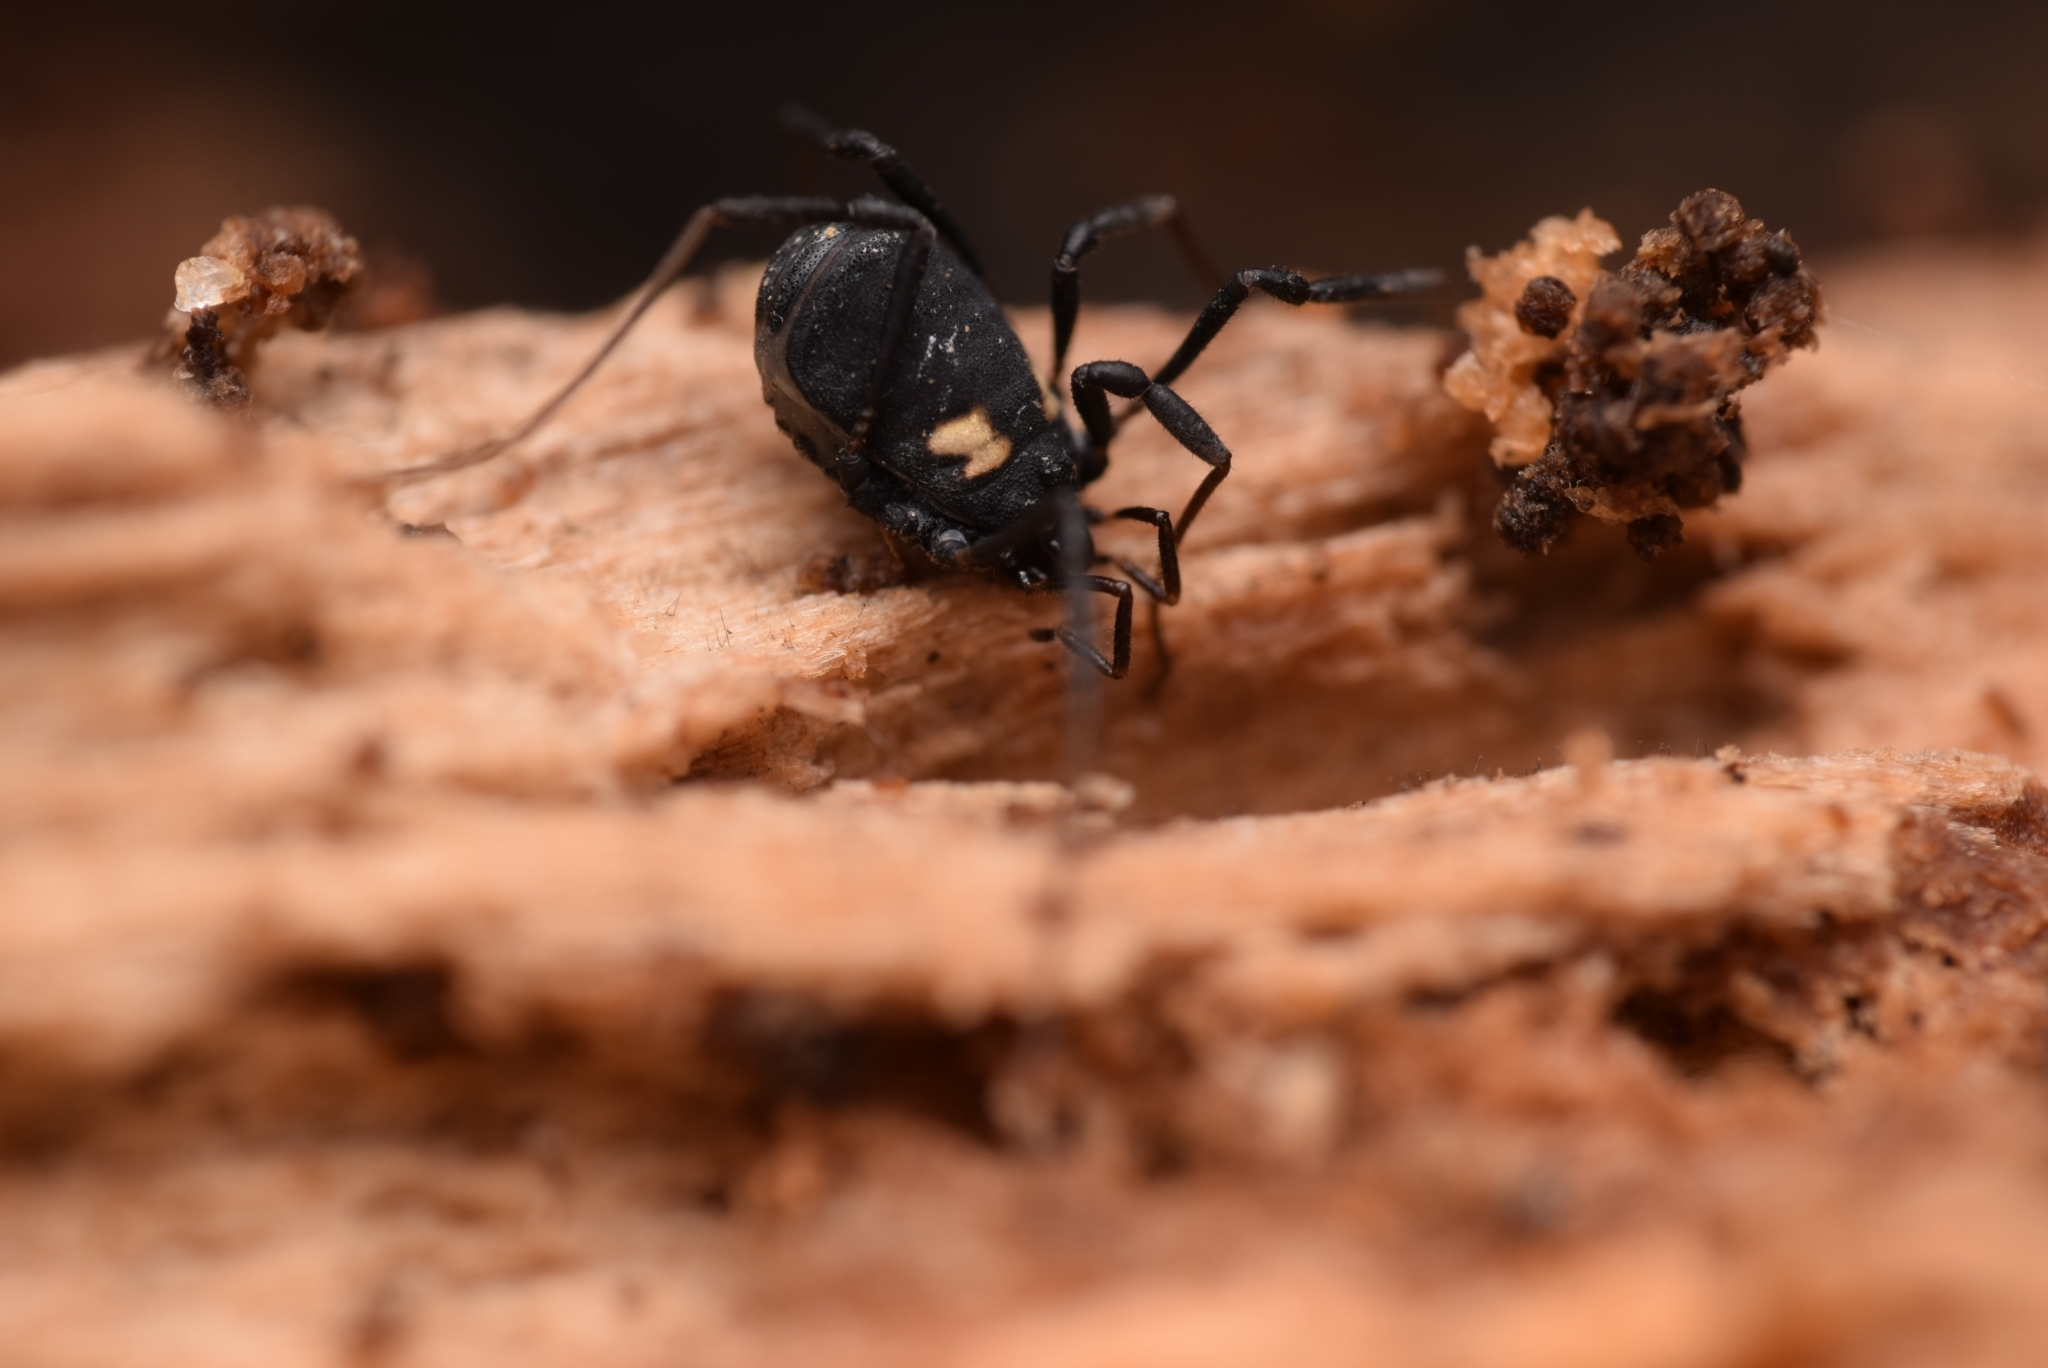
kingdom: Animalia
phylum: Arthropoda
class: Arachnida
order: Opiliones
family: Nemastomatidae
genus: Nemastoma
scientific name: Nemastoma bimaculatum
